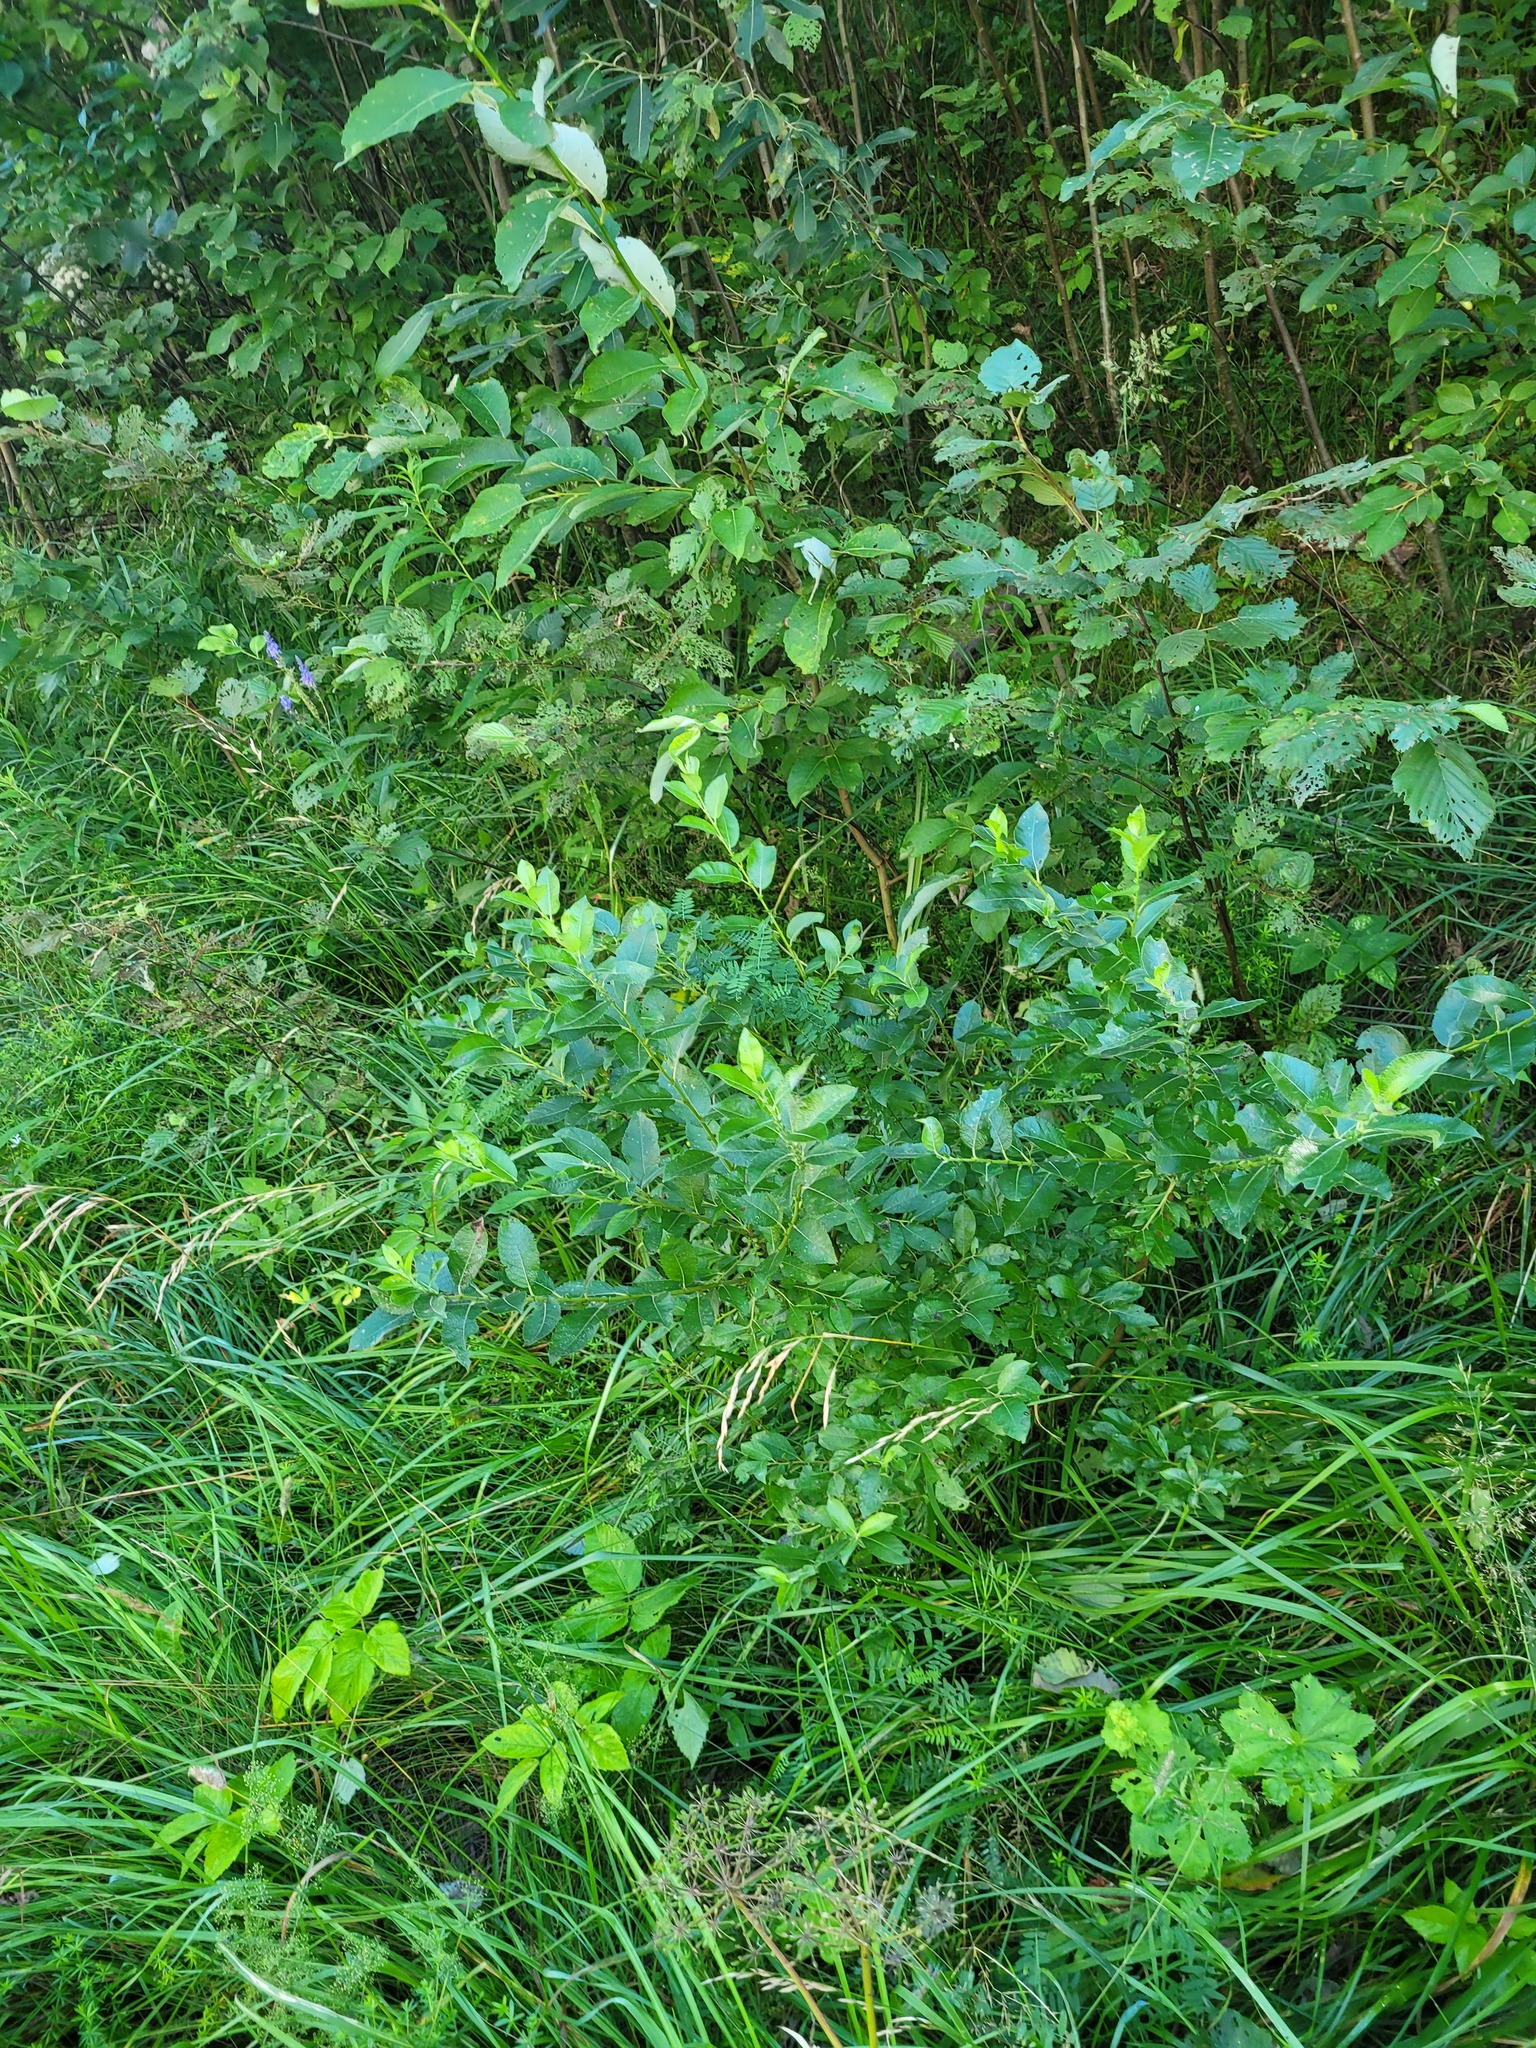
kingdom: Plantae
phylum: Tracheophyta
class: Magnoliopsida
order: Malpighiales
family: Salicaceae
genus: Salix
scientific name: Salix myrsinifolia
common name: Dark-leaved willow
